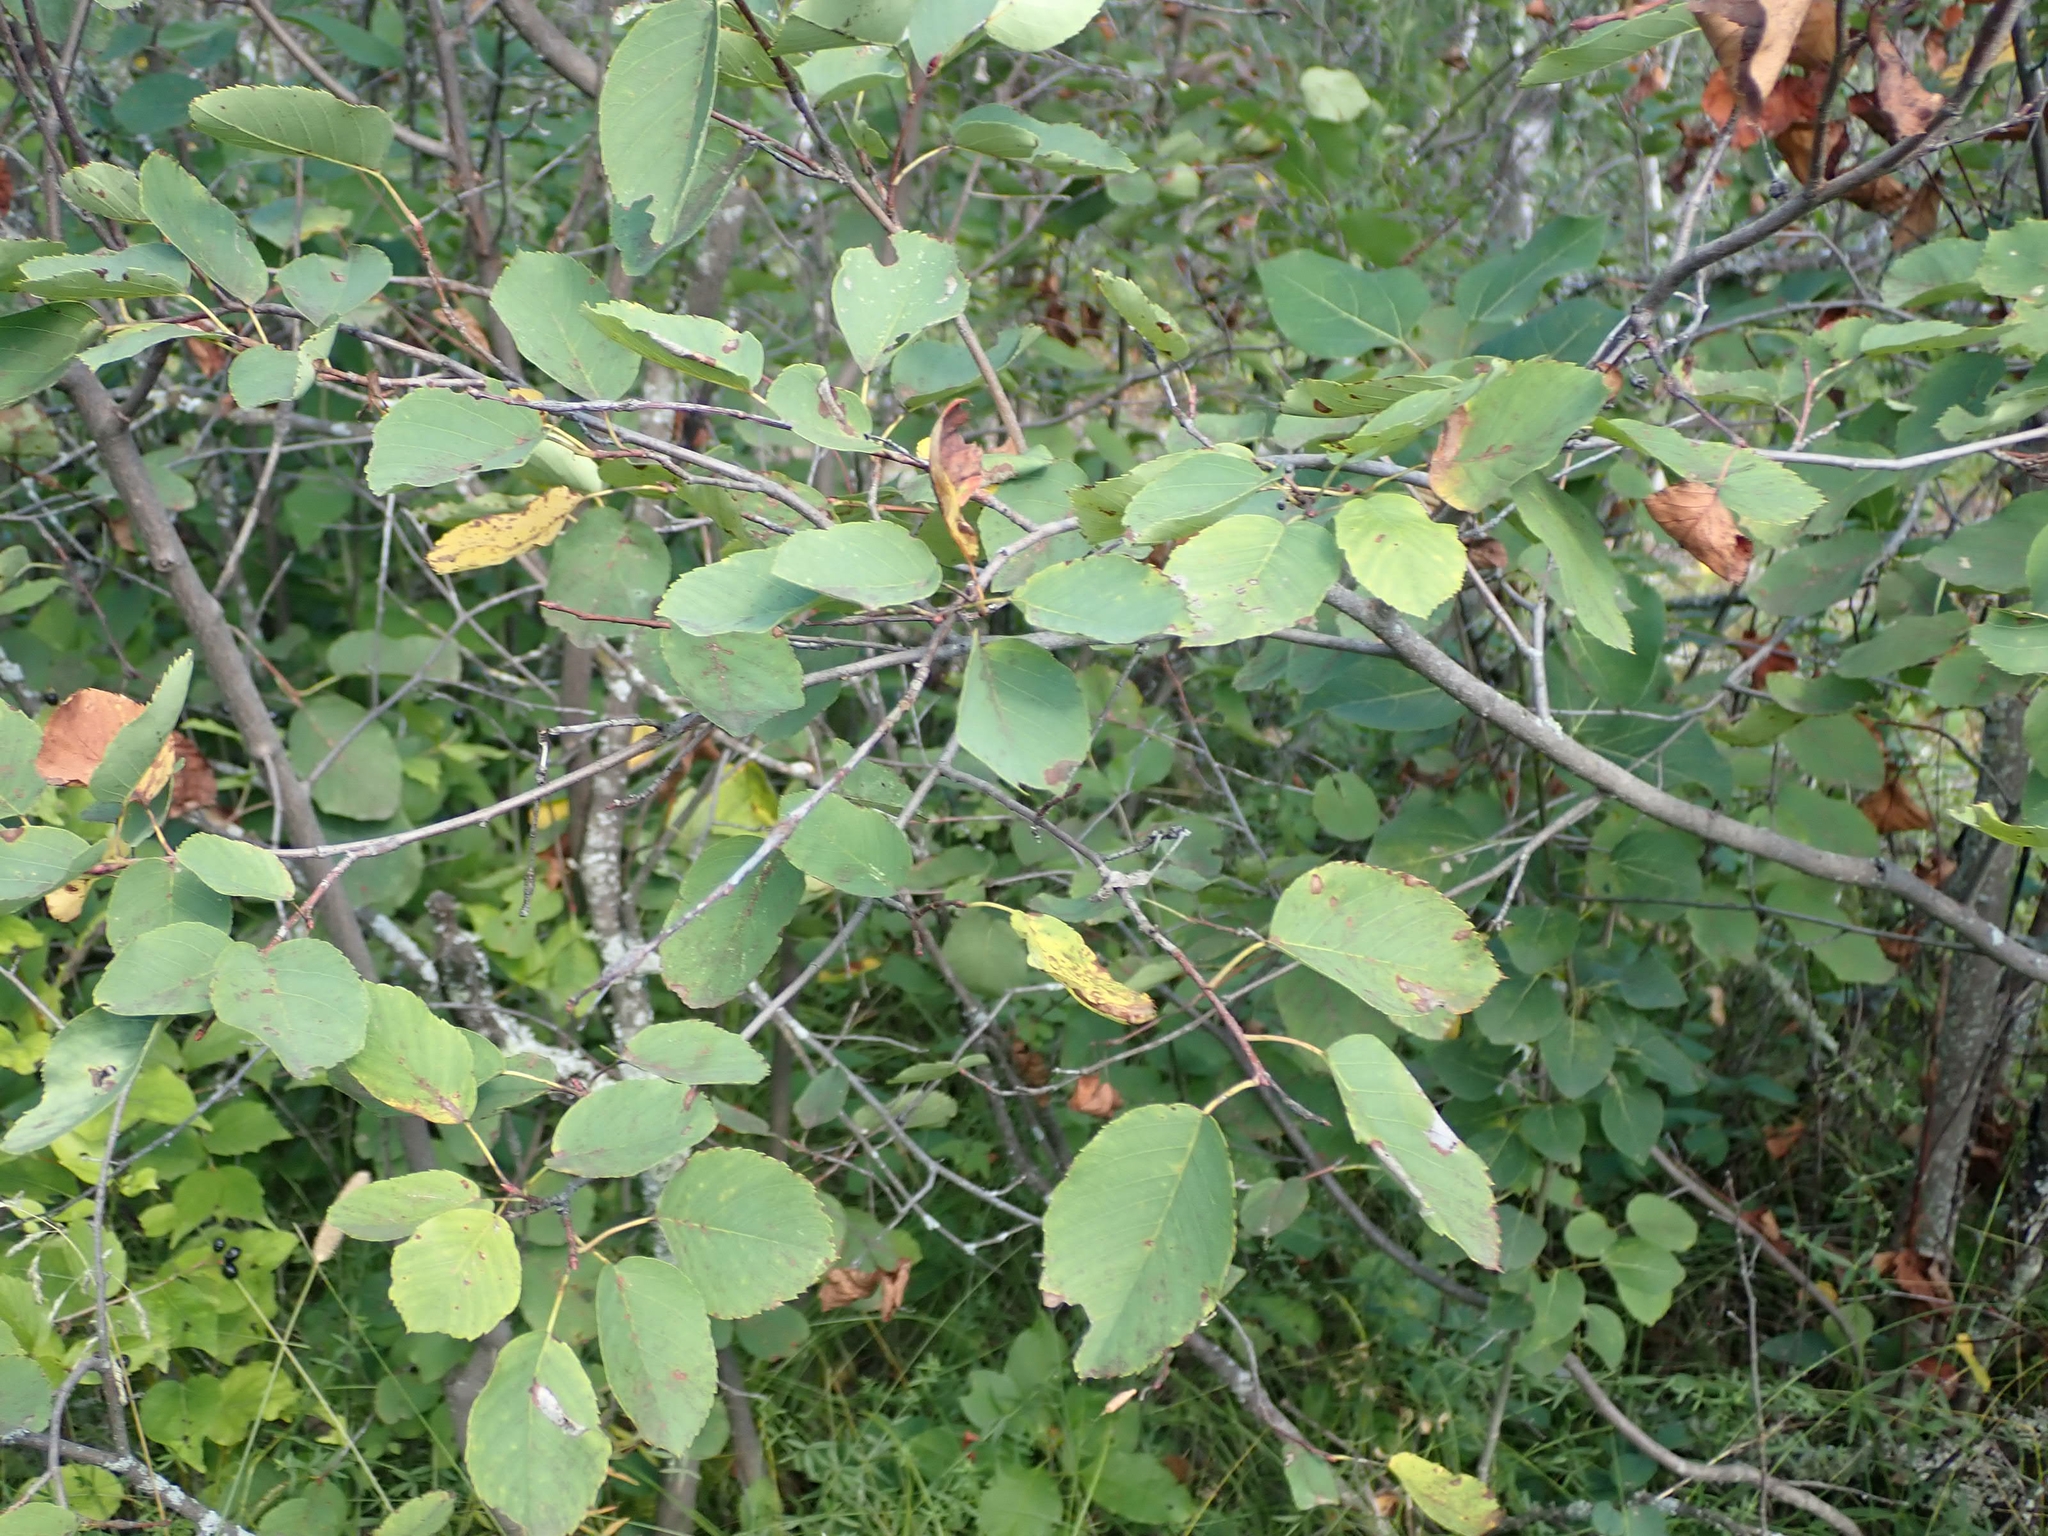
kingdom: Plantae
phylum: Tracheophyta
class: Magnoliopsida
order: Rosales
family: Rosaceae
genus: Amelanchier
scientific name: Amelanchier alnifolia
